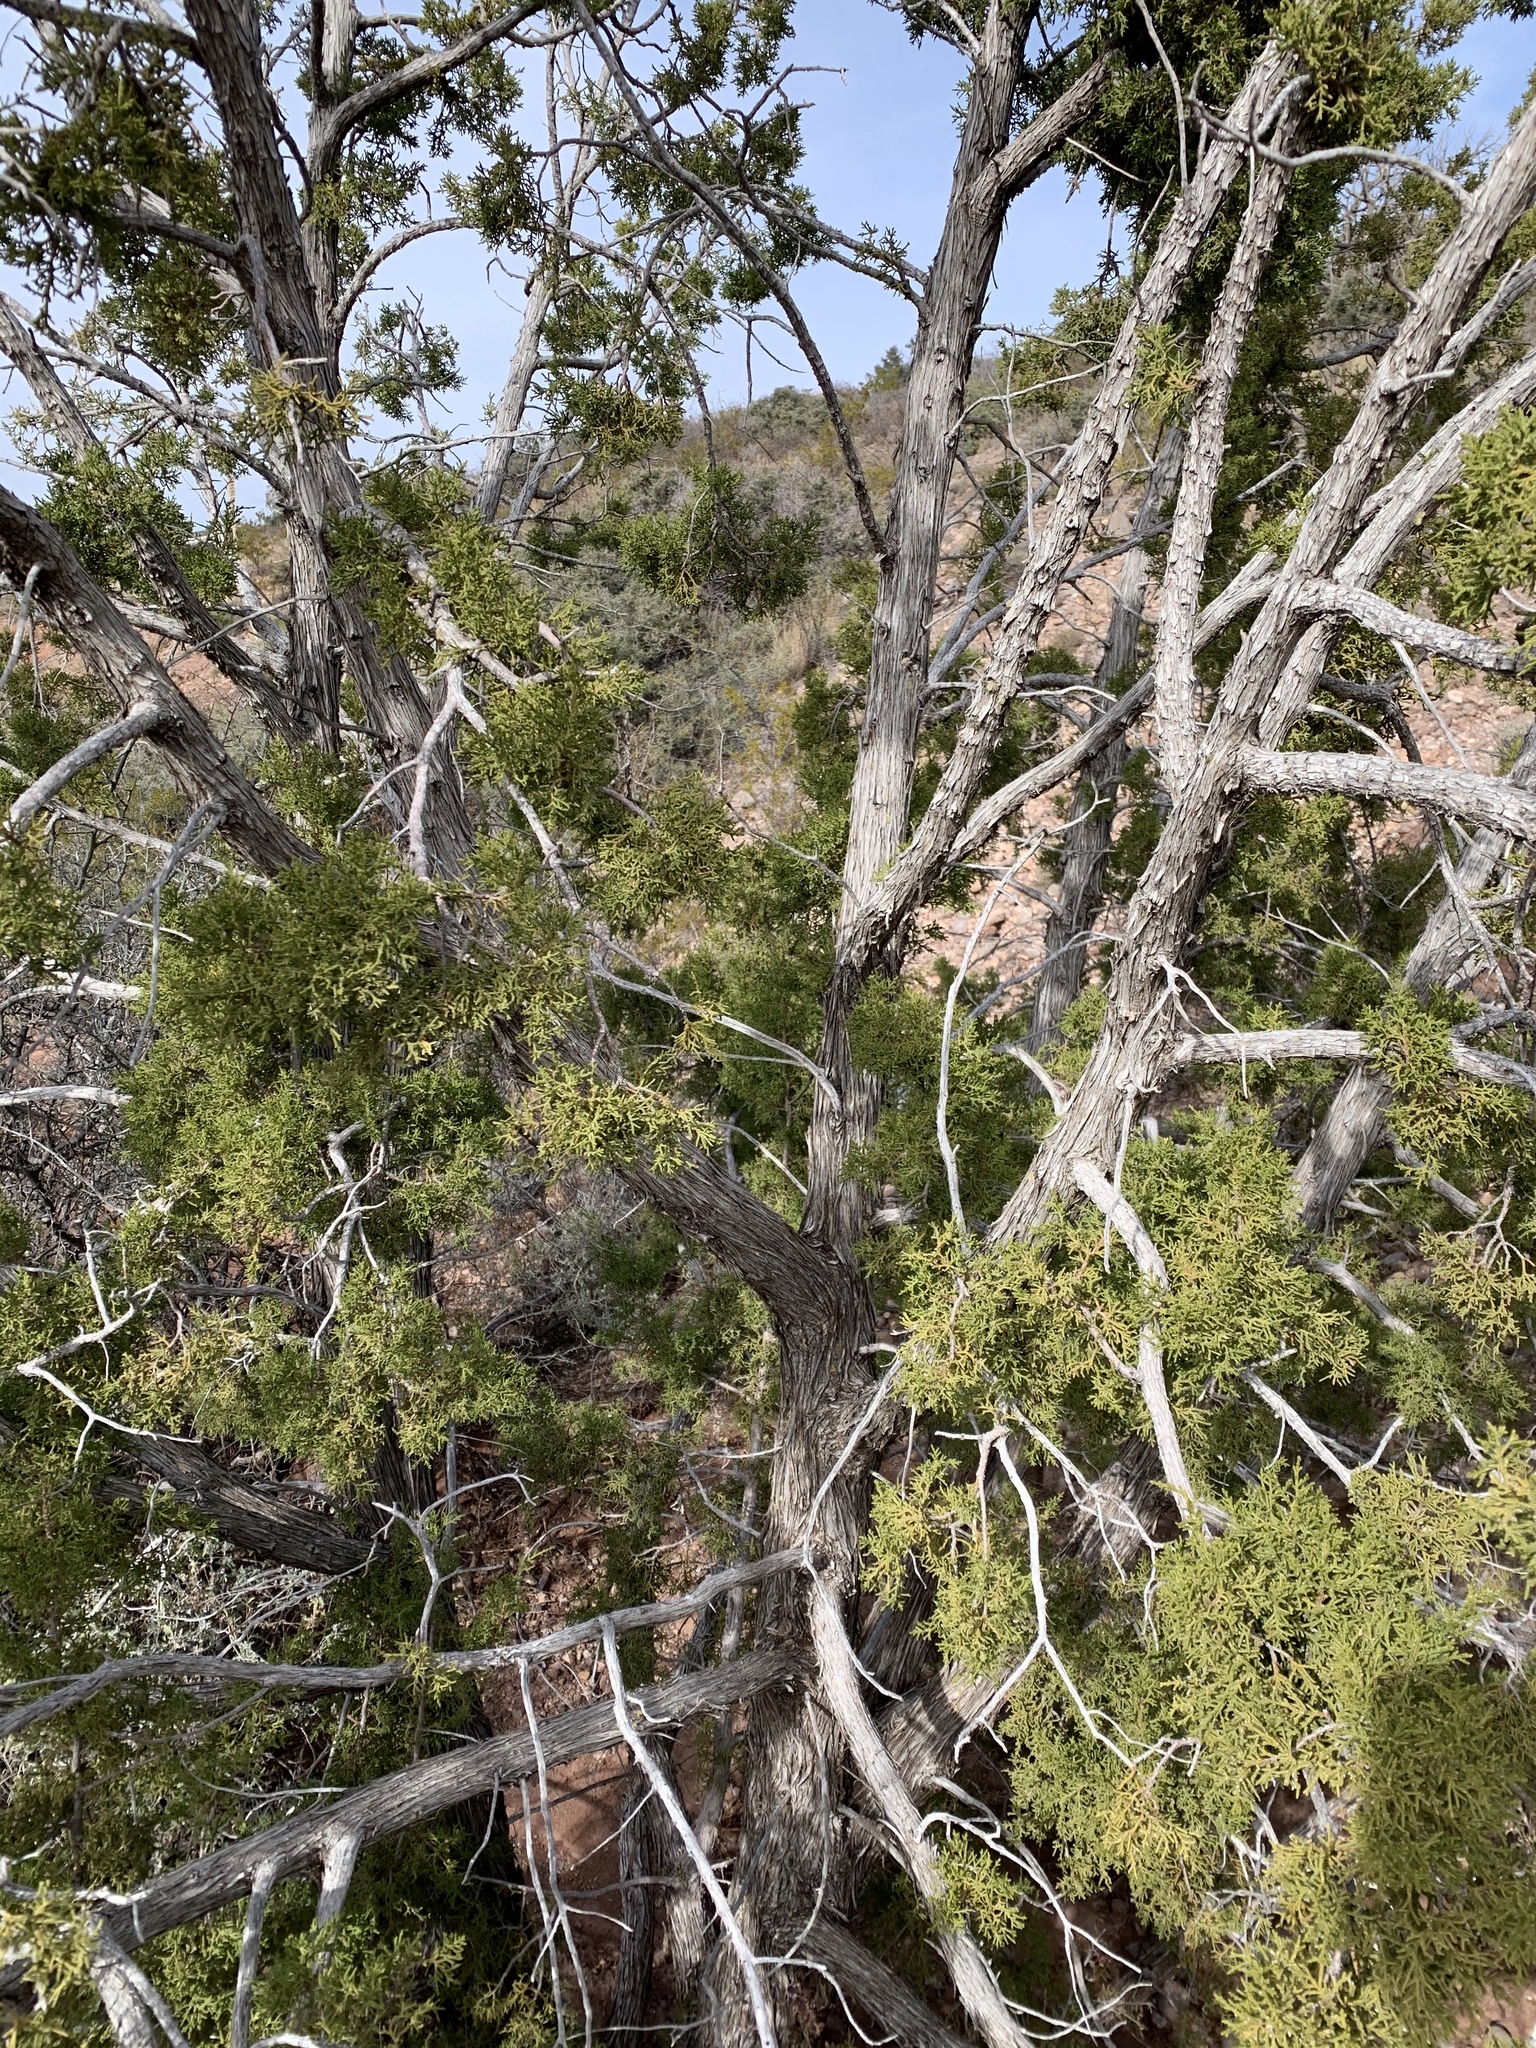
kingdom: Plantae
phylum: Tracheophyta
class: Pinopsida
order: Pinales
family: Cupressaceae
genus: Juniperus
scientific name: Juniperus monosperma
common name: One-seed juniper
